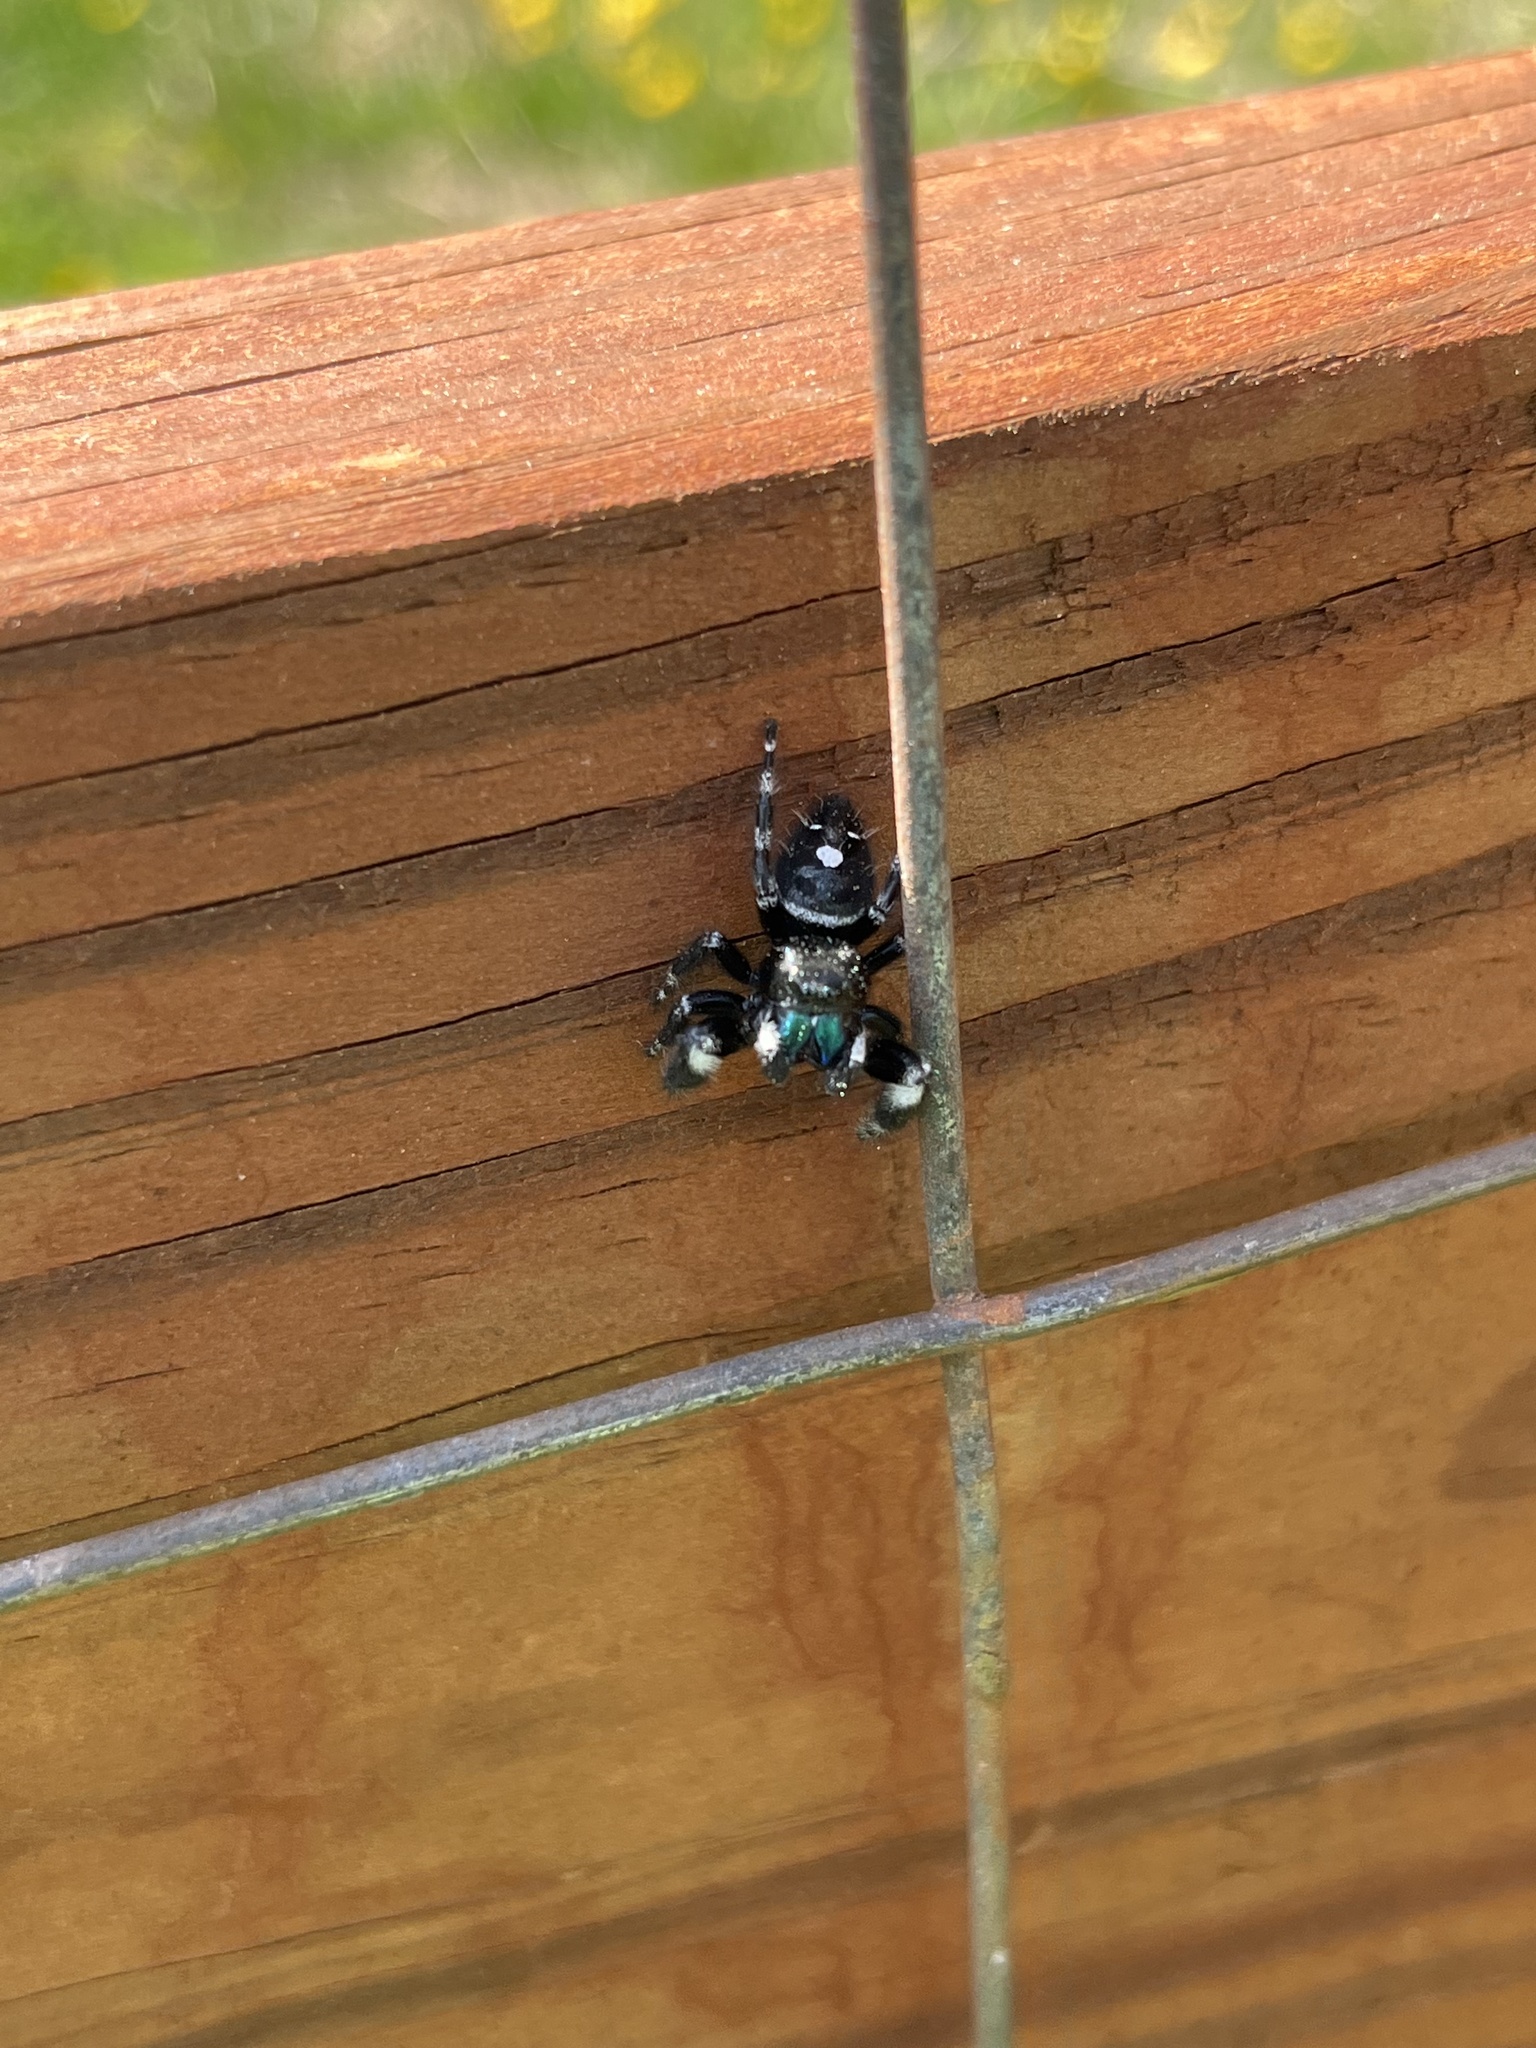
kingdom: Animalia
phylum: Arthropoda
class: Arachnida
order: Araneae
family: Salticidae
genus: Phidippus
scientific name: Phidippus audax
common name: Bold jumper
